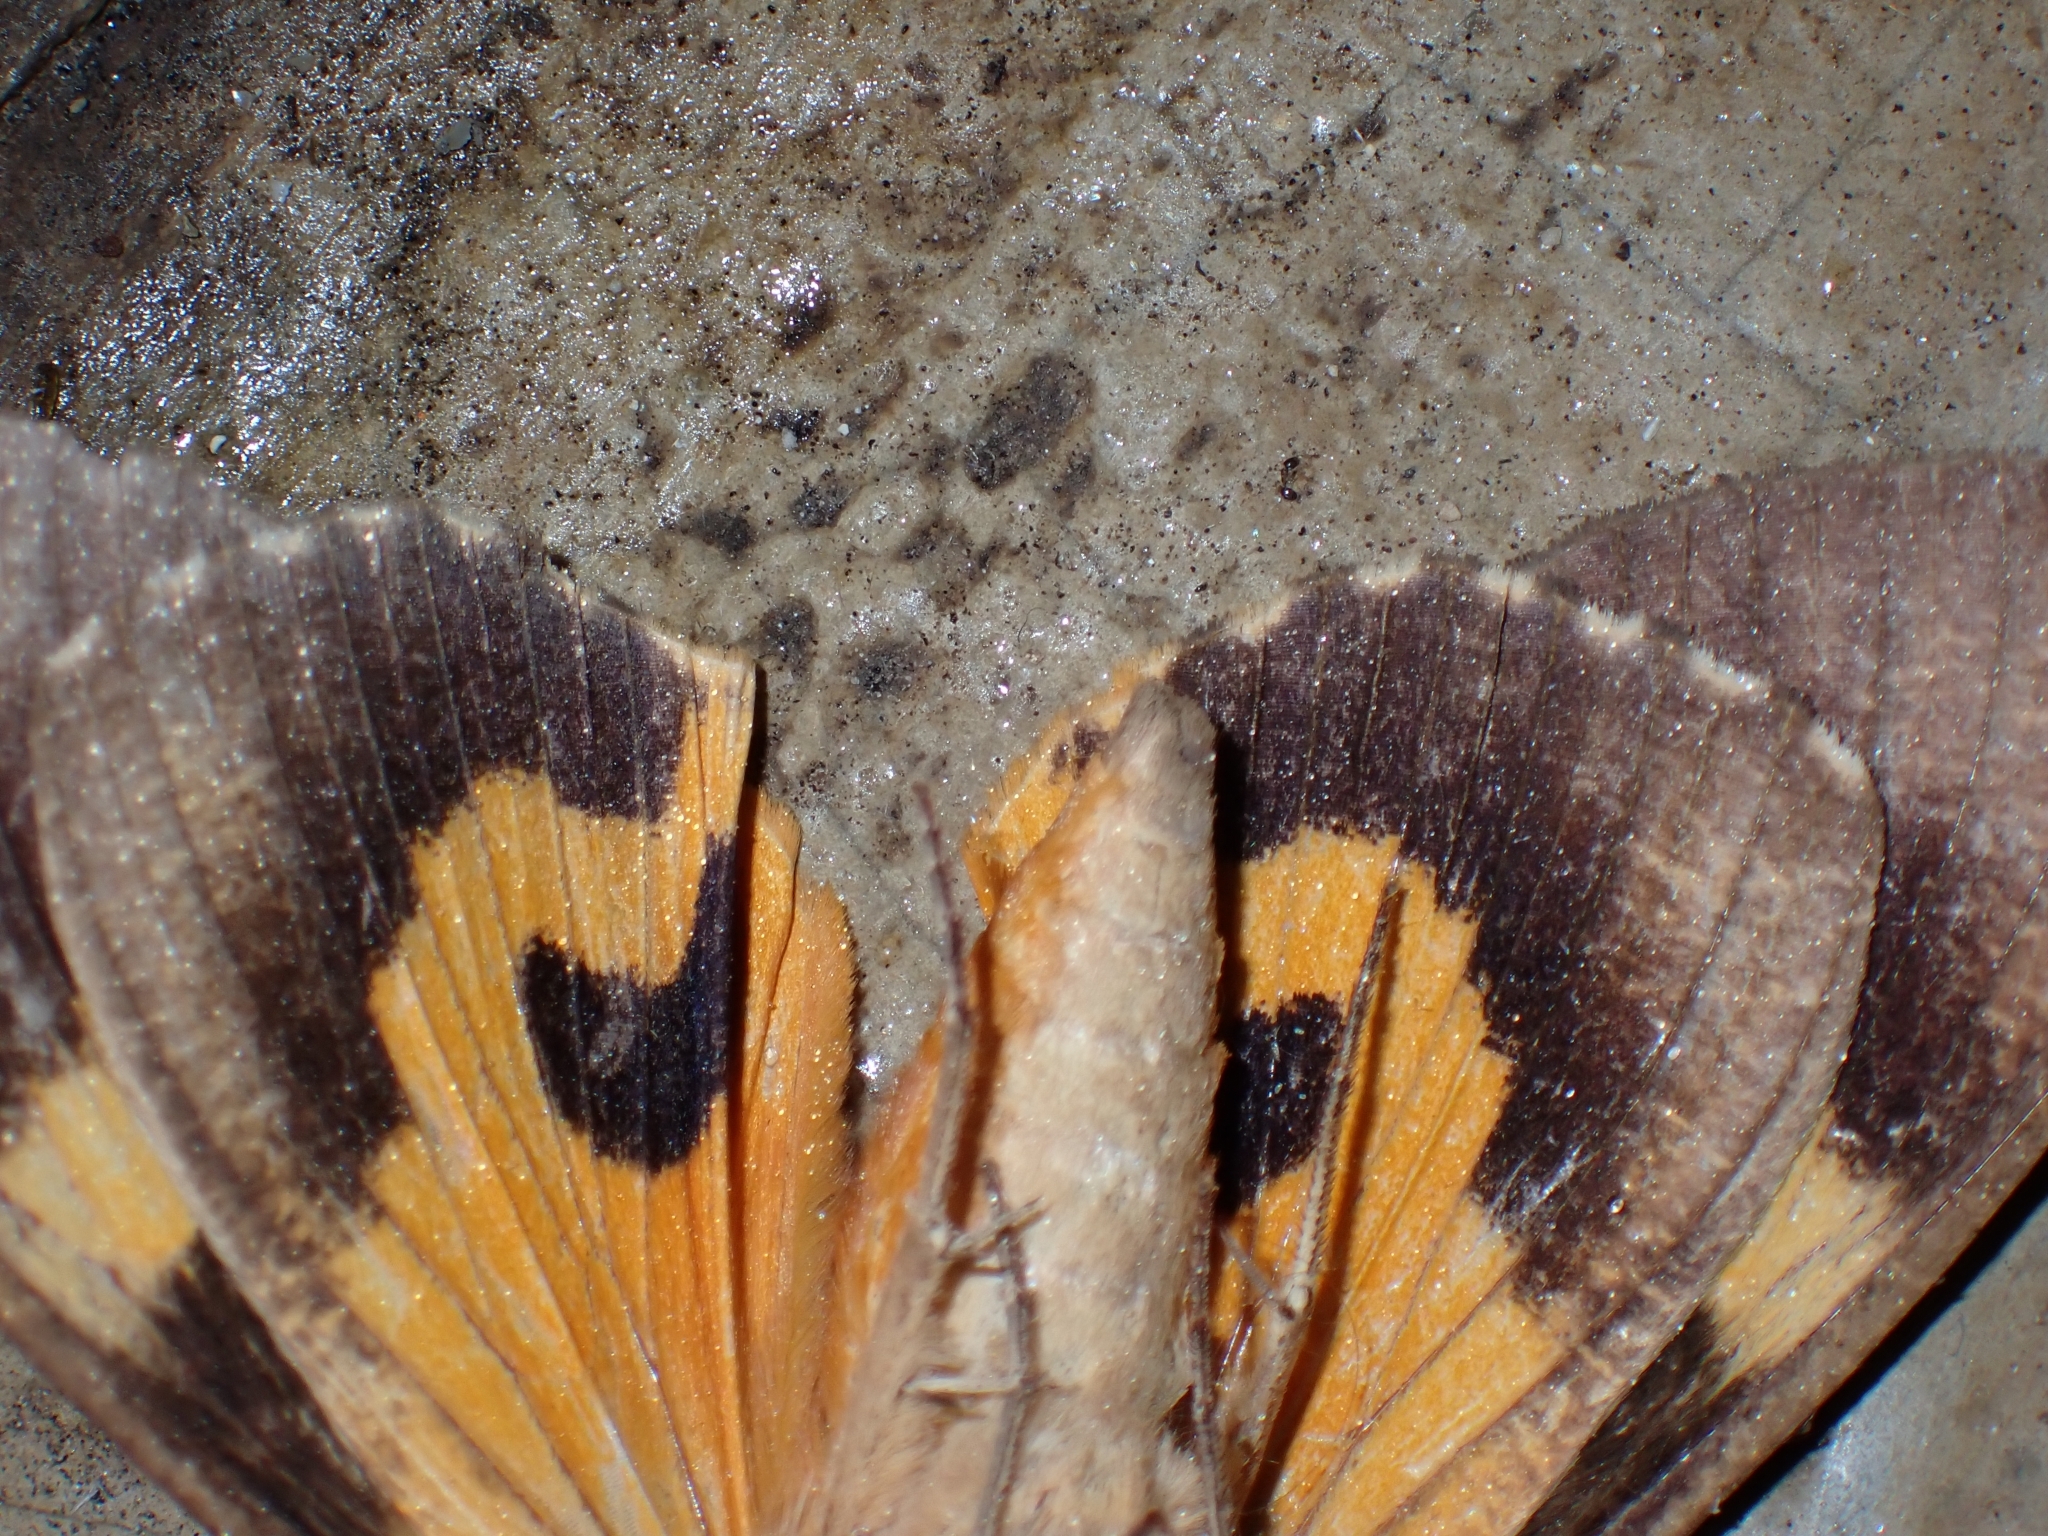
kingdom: Animalia
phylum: Arthropoda
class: Insecta
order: Lepidoptera
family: Erebidae
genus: Eudocima
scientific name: Eudocima phalonia
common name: Wasp
